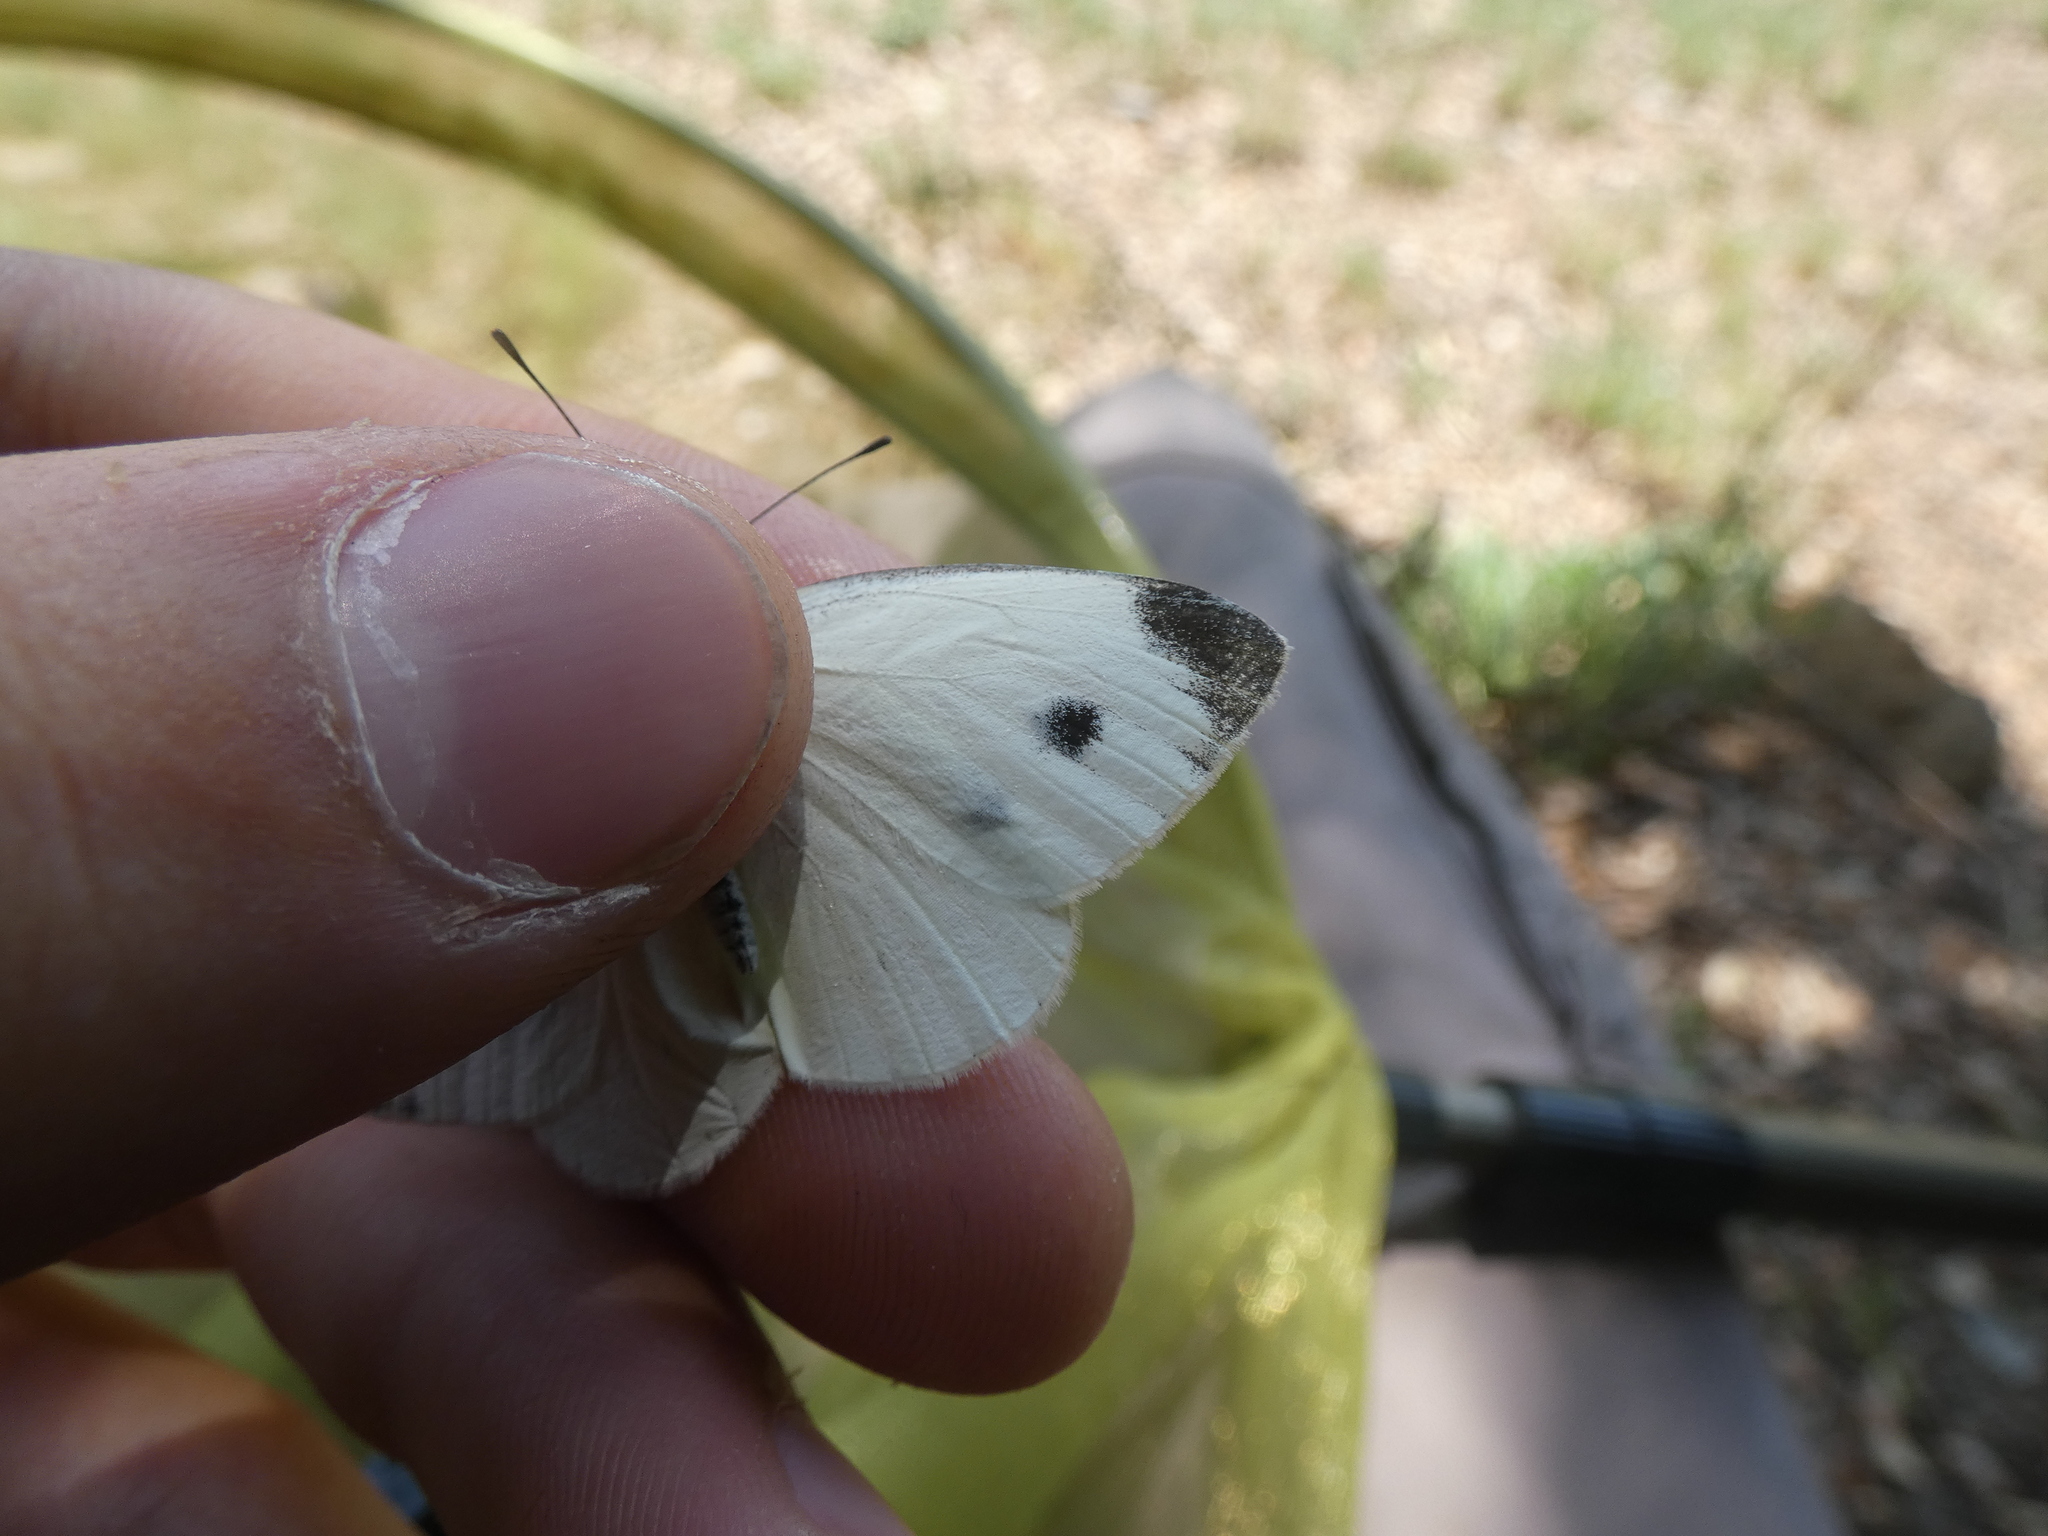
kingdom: Animalia
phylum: Arthropoda
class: Insecta
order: Lepidoptera
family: Pieridae
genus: Pieris
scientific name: Pieris mannii
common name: Southern small white
